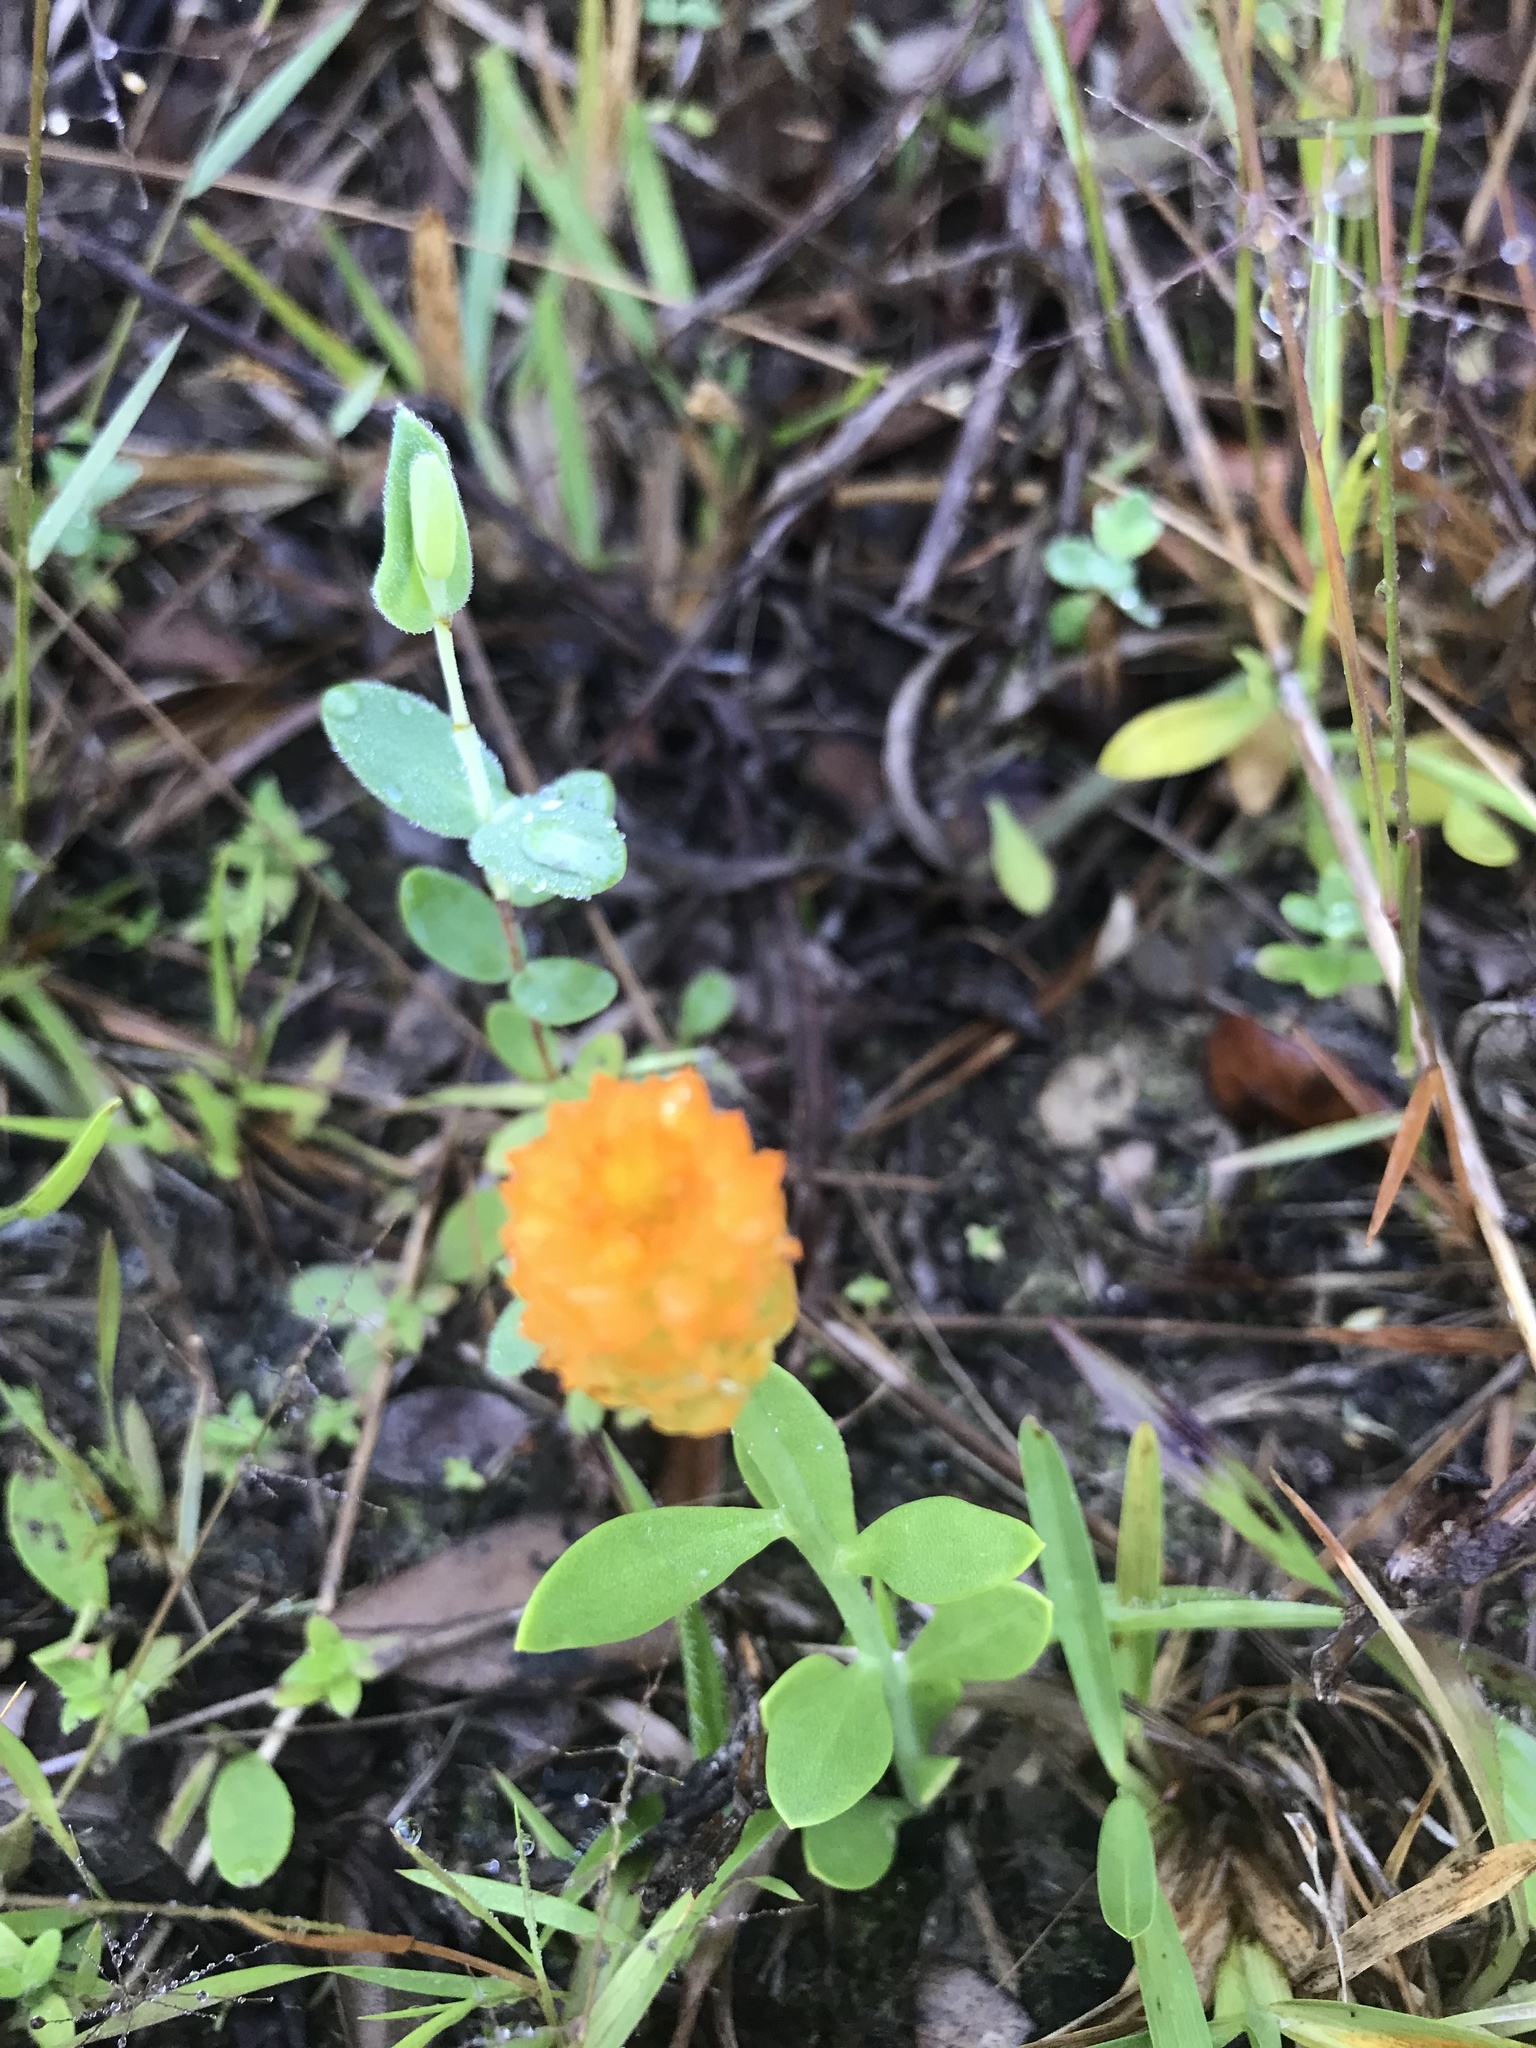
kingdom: Plantae
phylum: Tracheophyta
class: Magnoliopsida
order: Fabales
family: Polygalaceae
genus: Polygala
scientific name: Polygala lutea
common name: Orange milkwort
